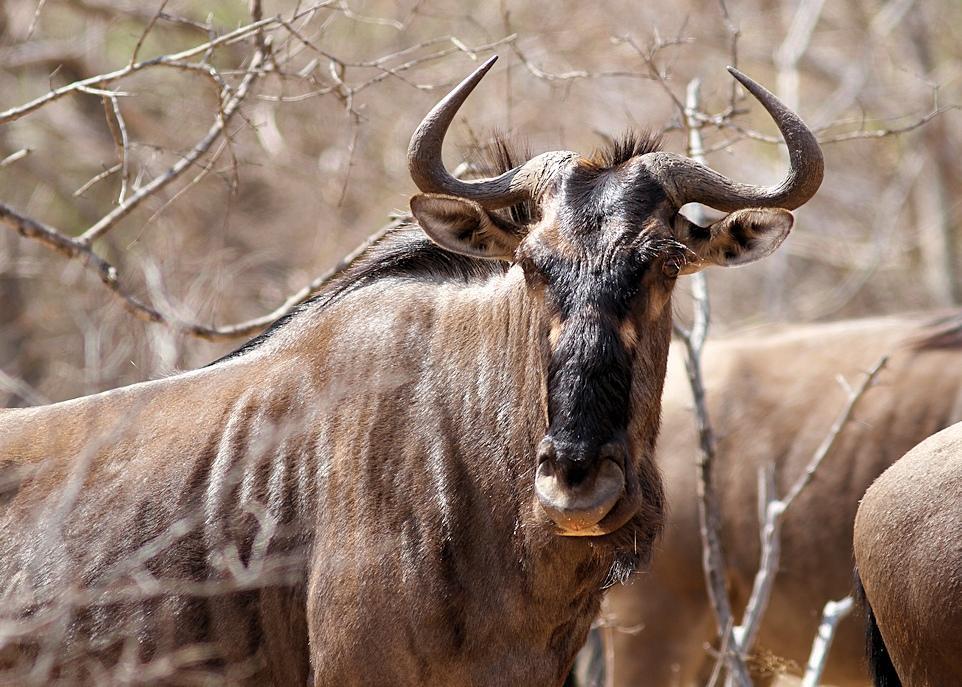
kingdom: Animalia
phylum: Chordata
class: Mammalia
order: Artiodactyla
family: Bovidae
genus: Connochaetes
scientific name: Connochaetes taurinus
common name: Blue wildebeest
